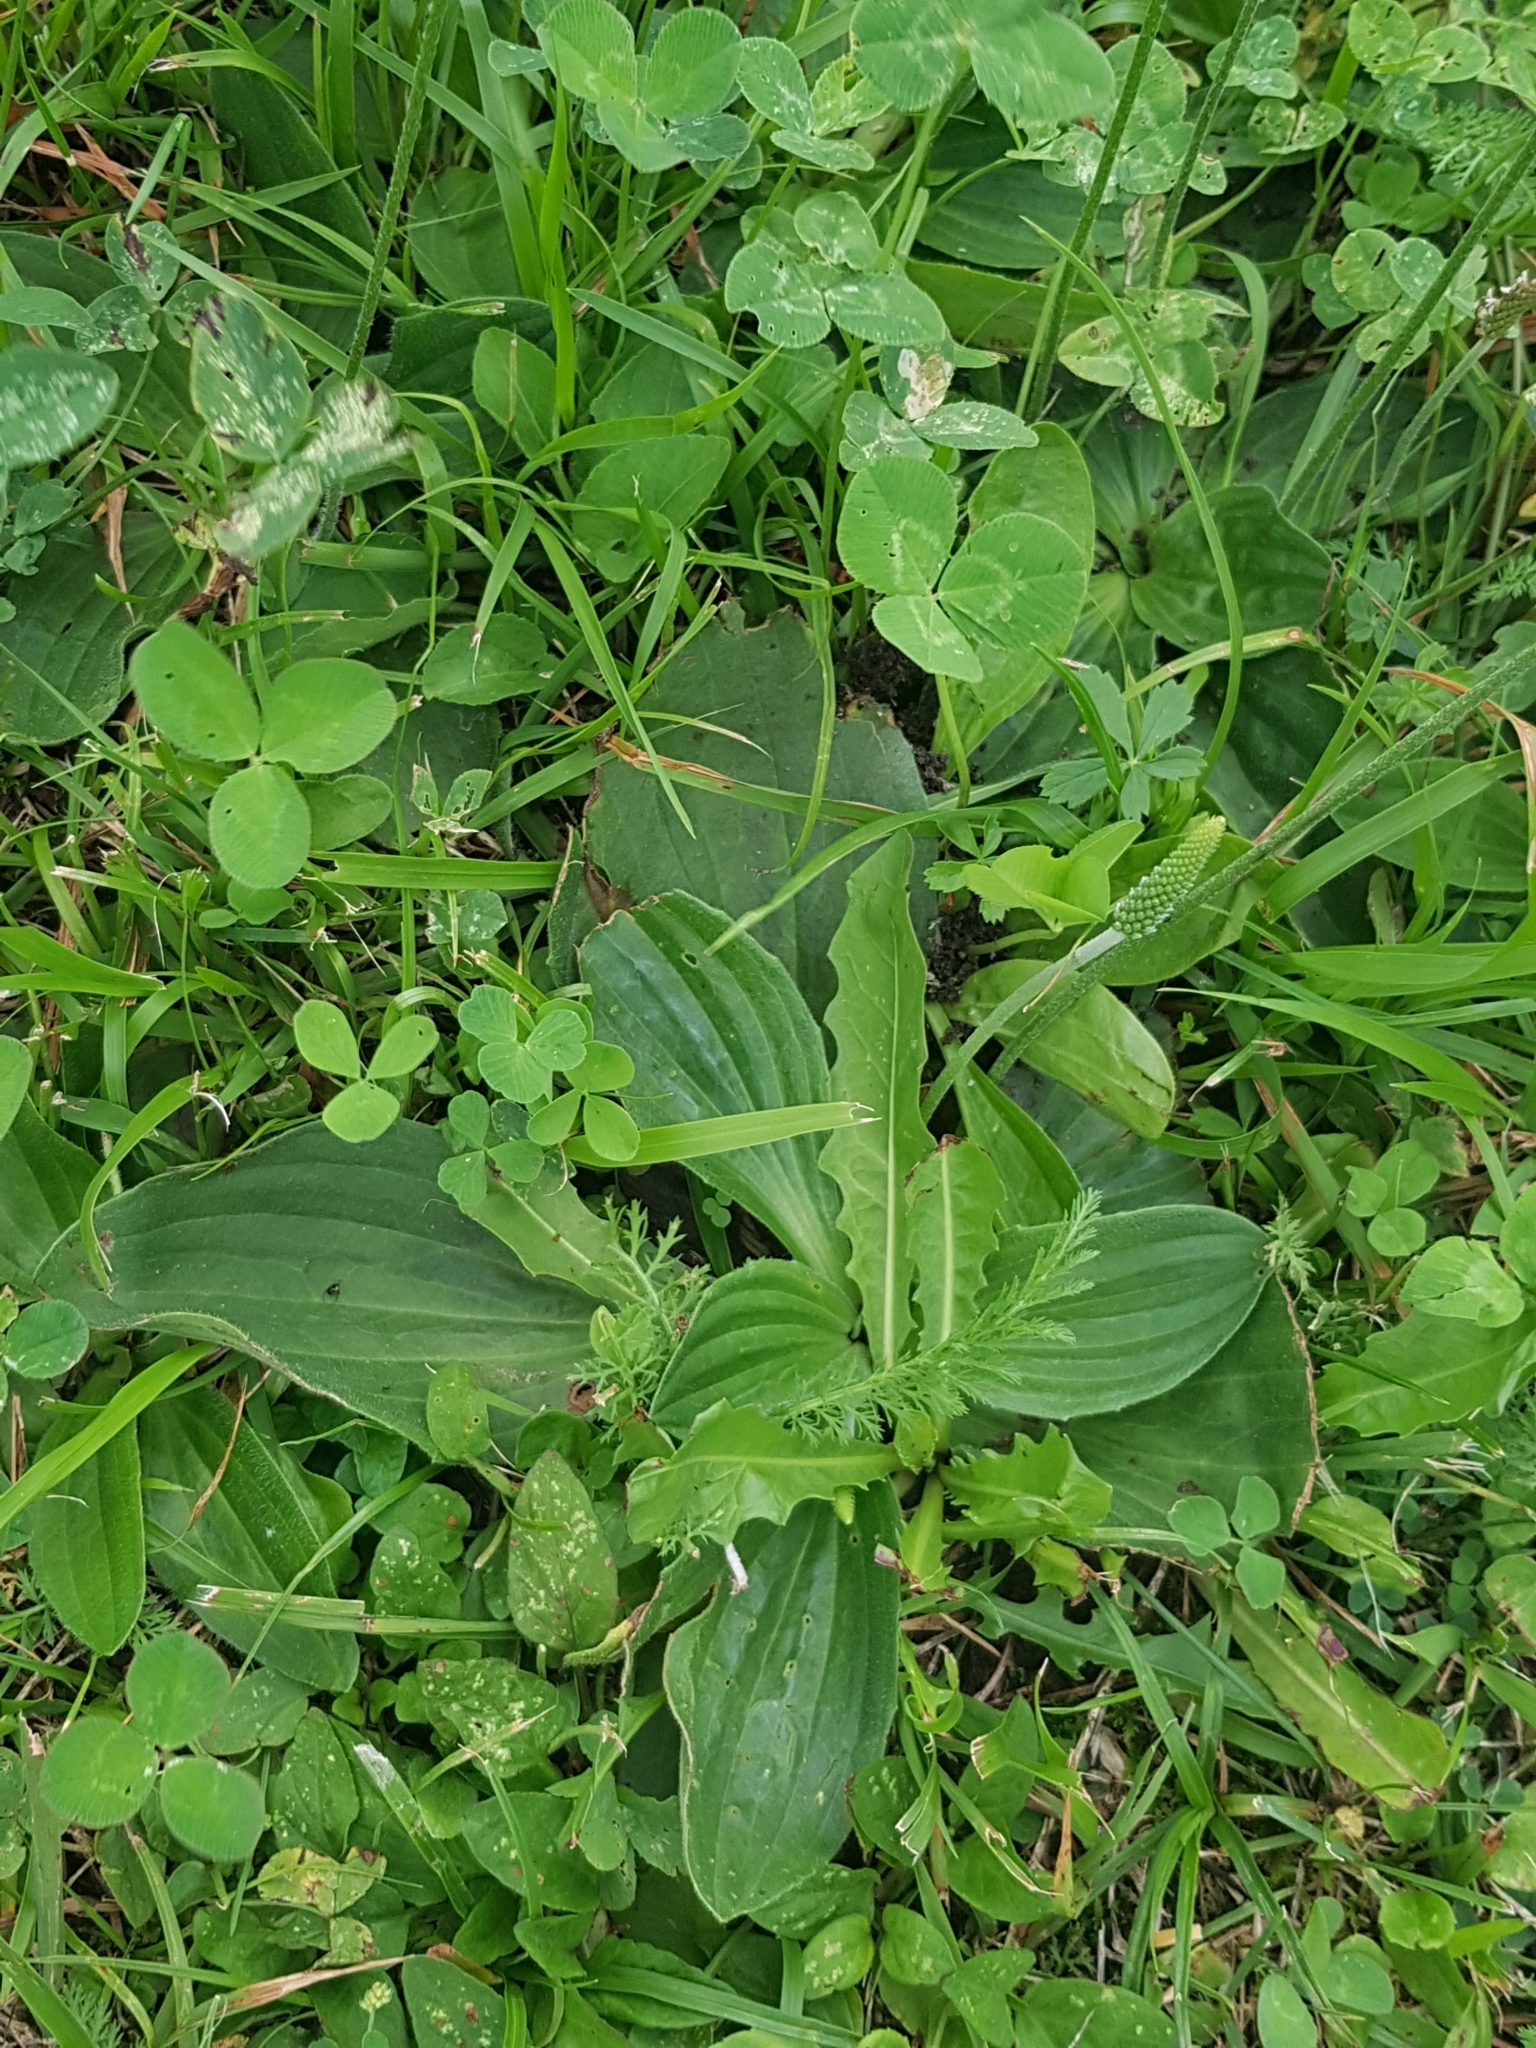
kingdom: Plantae
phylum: Tracheophyta
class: Magnoliopsida
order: Lamiales
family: Plantaginaceae
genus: Plantago
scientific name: Plantago media
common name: Hoary plantain
